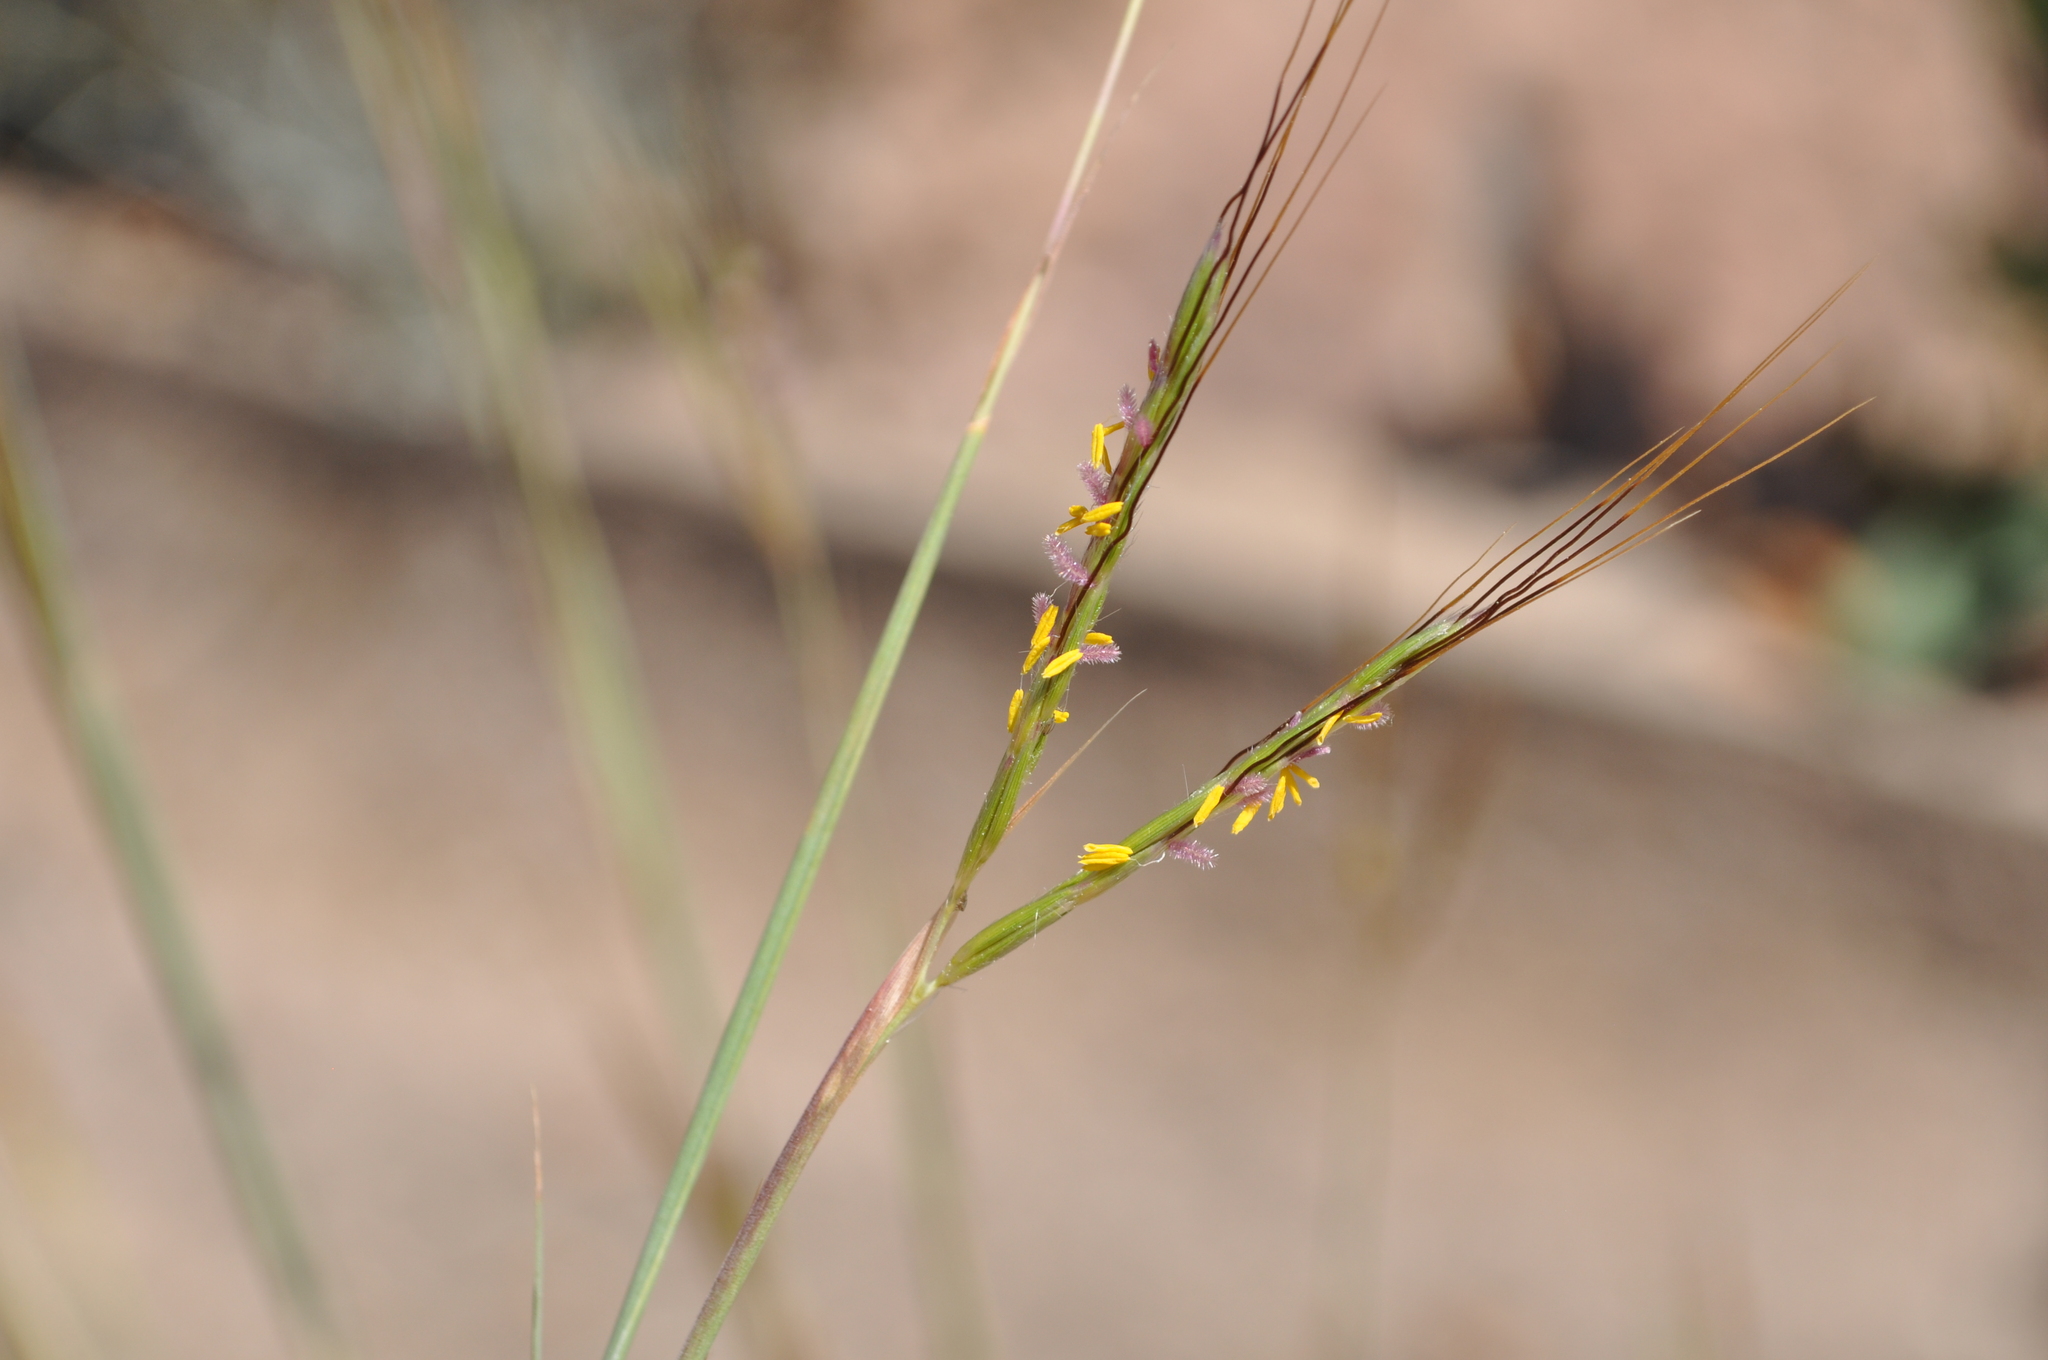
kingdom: Plantae
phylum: Tracheophyta
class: Liliopsida
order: Poales
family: Poaceae
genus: Hyparrhenia
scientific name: Hyparrhenia hirta
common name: Thatching grass
